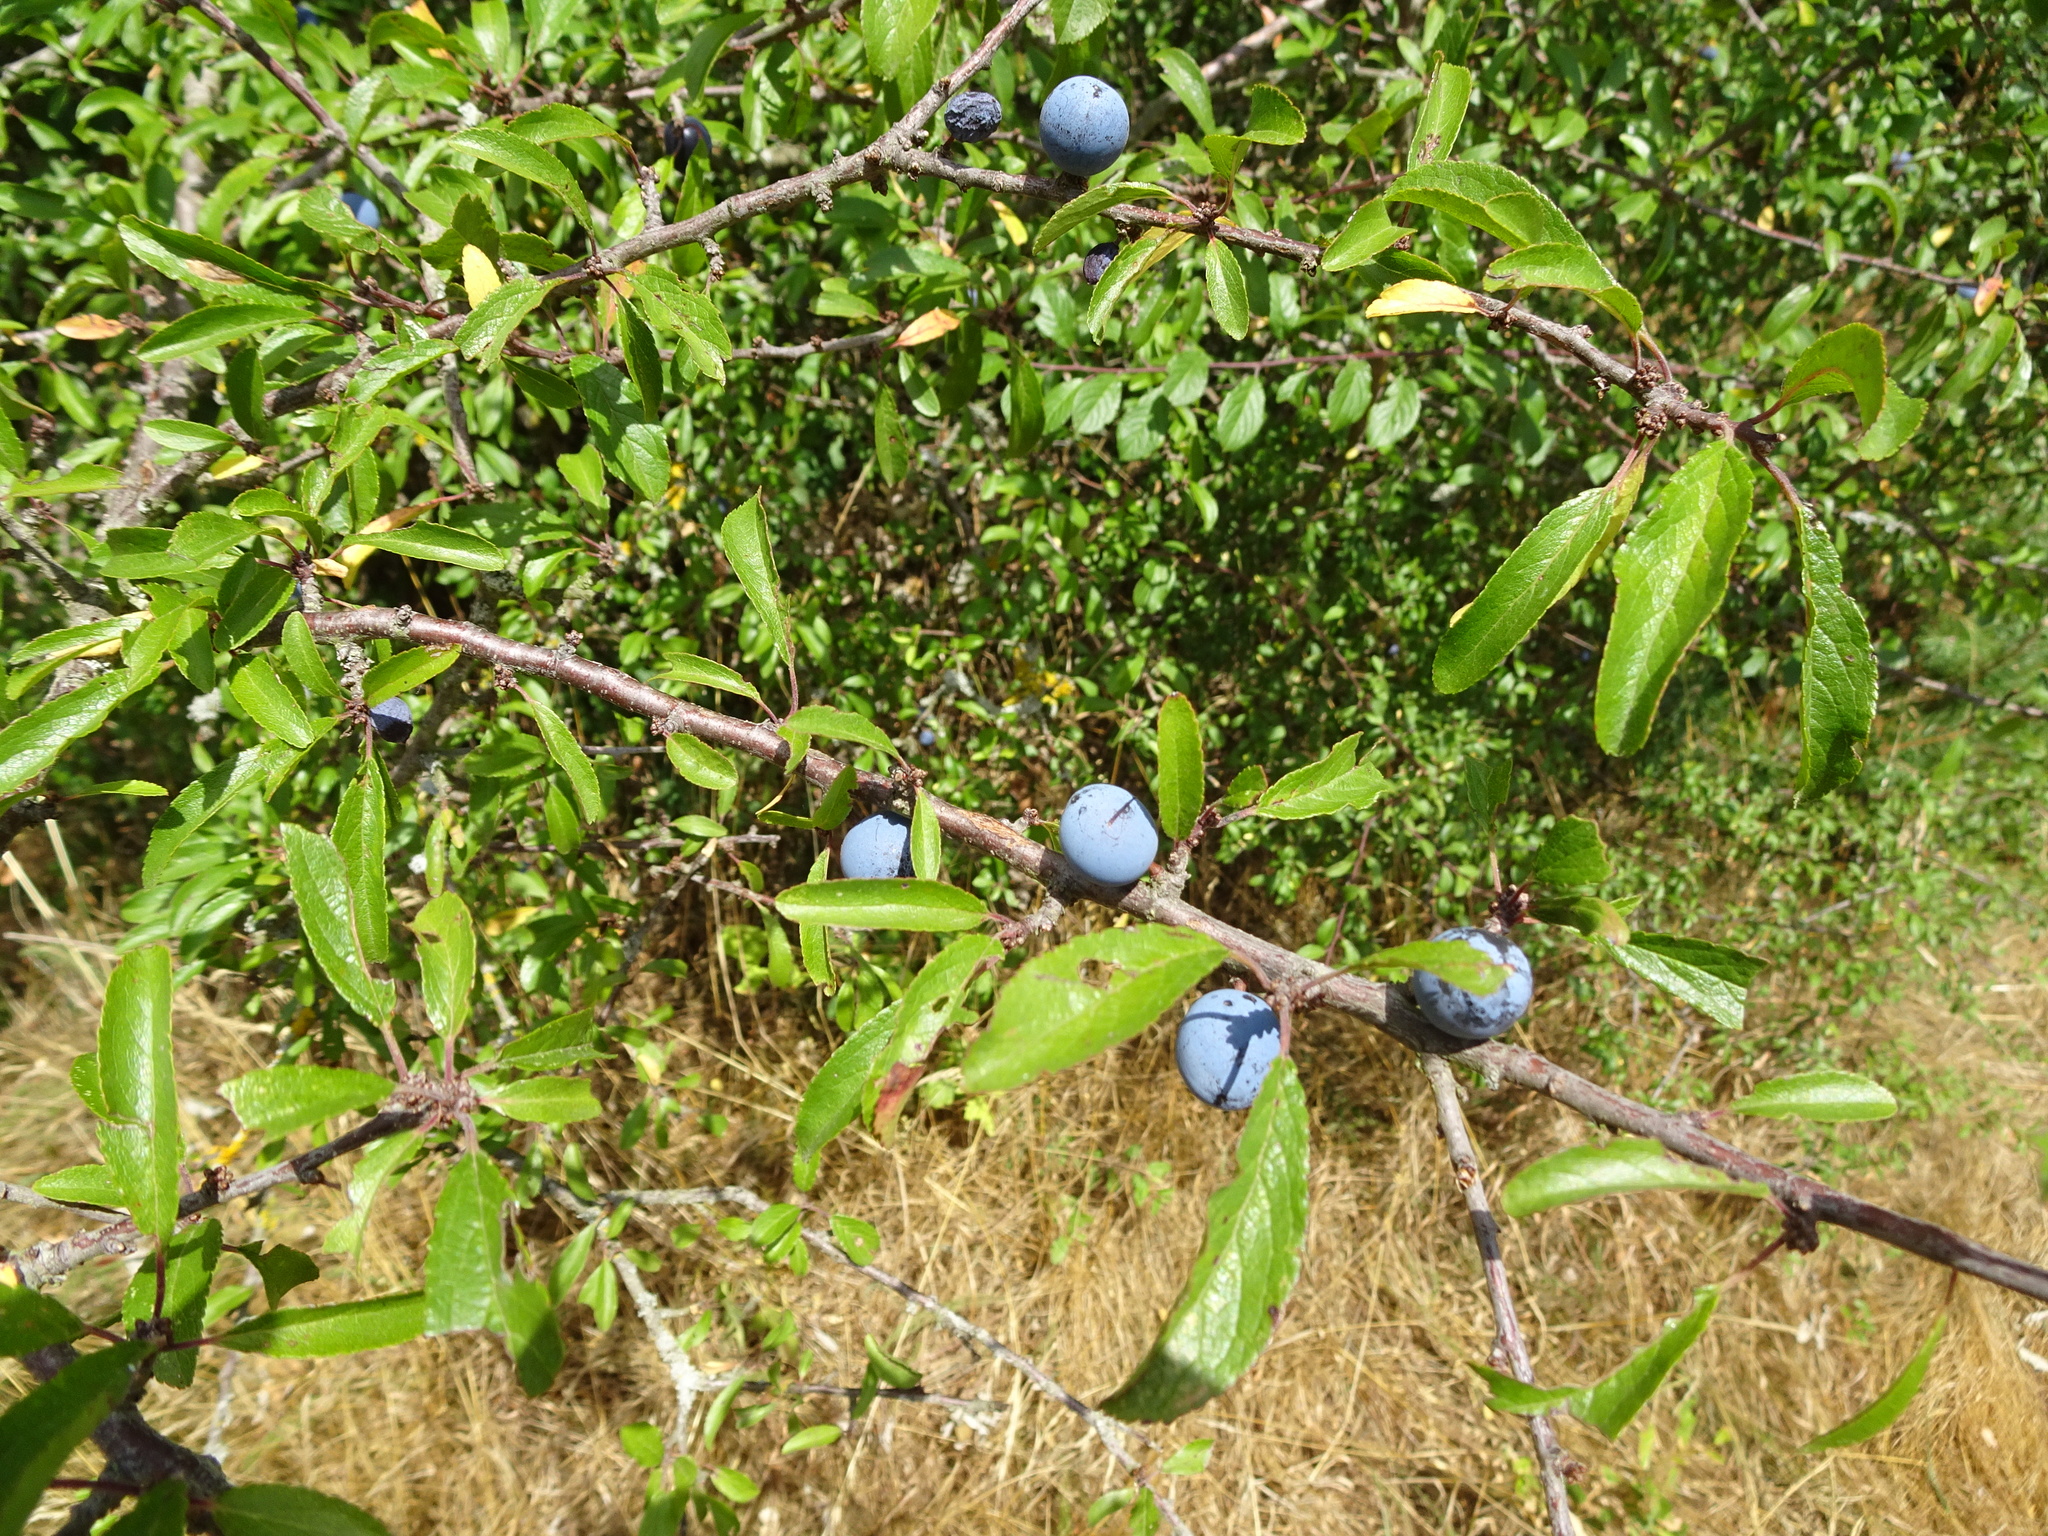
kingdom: Plantae
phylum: Tracheophyta
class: Magnoliopsida
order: Rosales
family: Rosaceae
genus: Prunus
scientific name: Prunus spinosa
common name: Blackthorn
